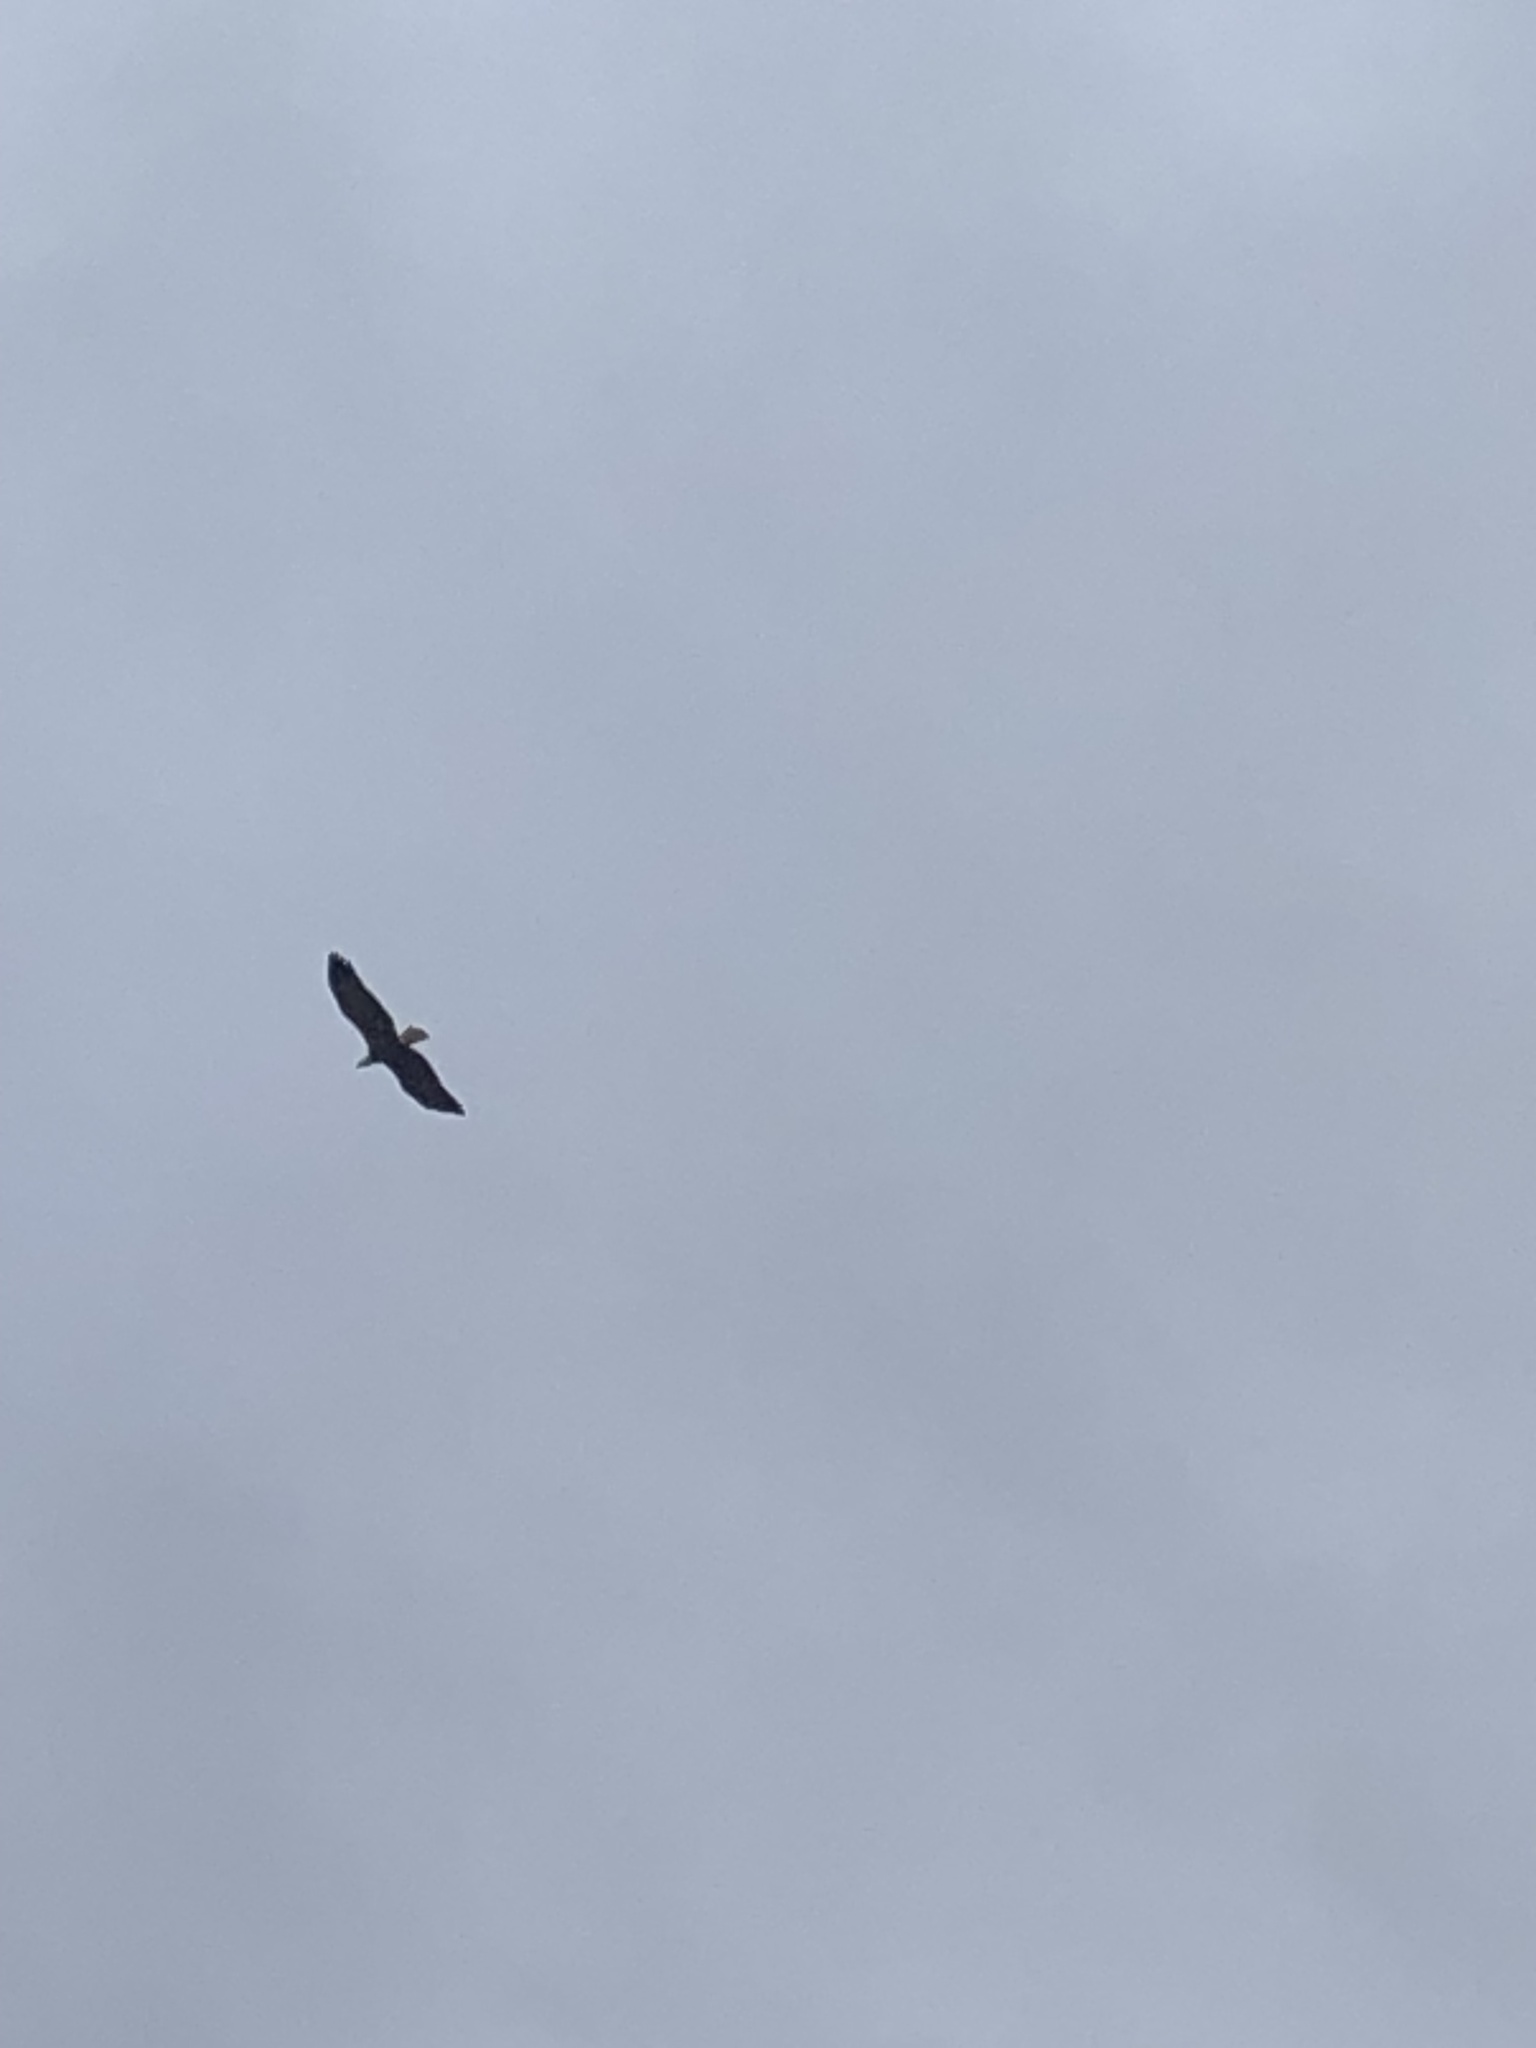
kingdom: Animalia
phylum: Chordata
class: Aves
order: Accipitriformes
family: Accipitridae
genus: Haliaeetus
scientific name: Haliaeetus leucocephalus
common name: Bald eagle
